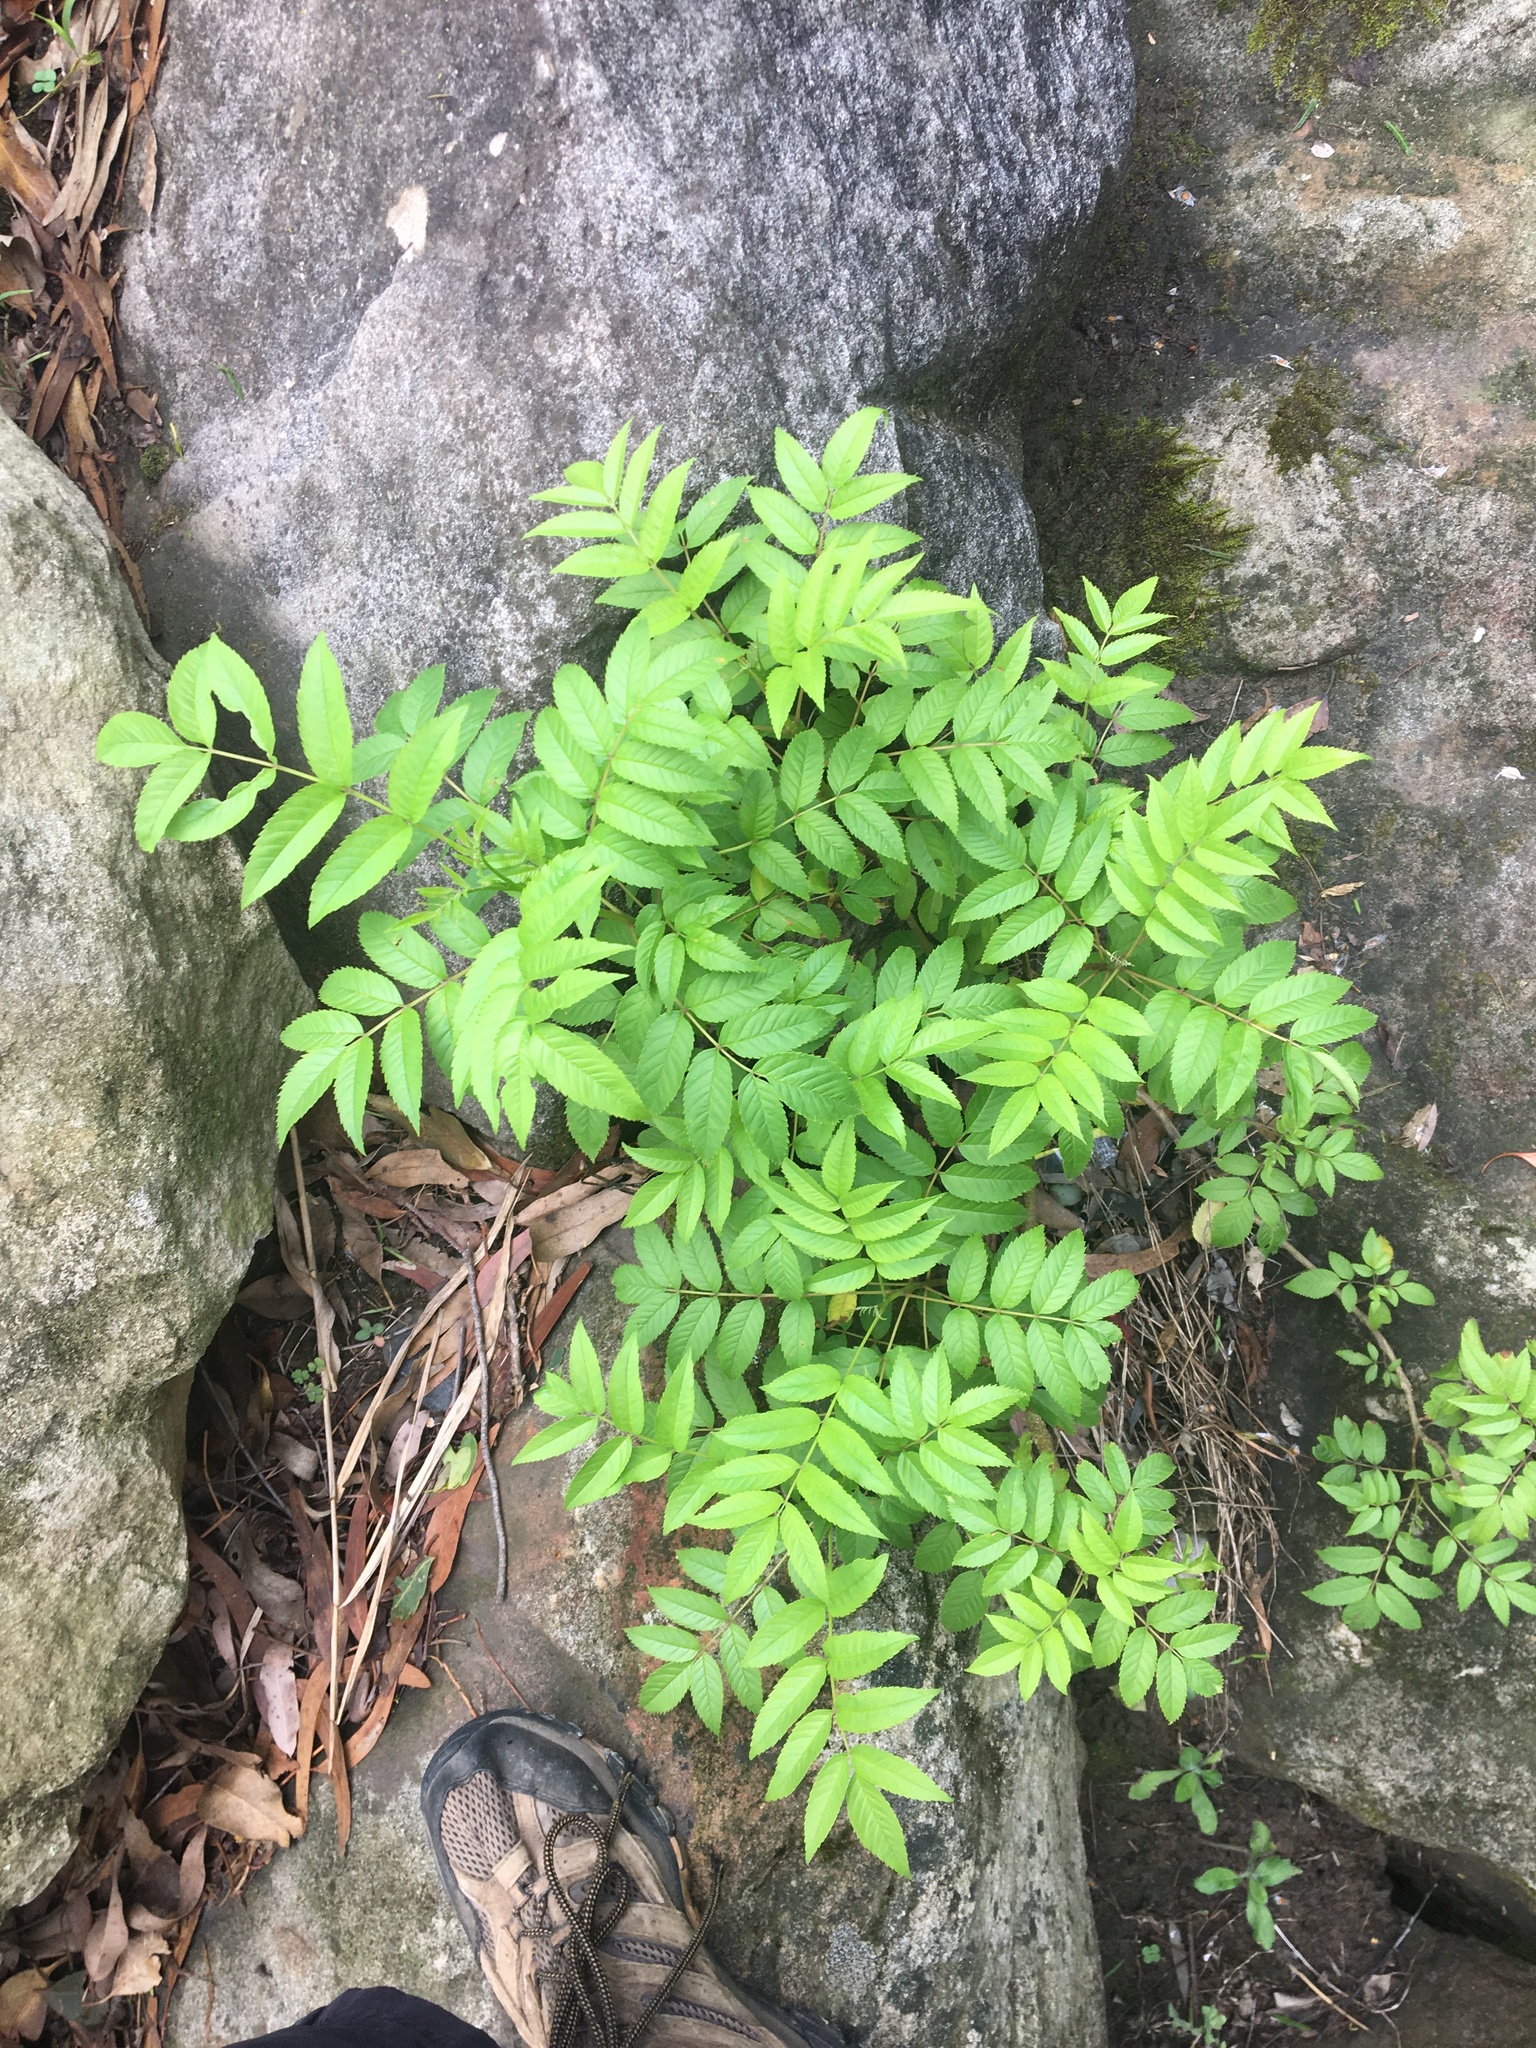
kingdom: Plantae
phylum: Tracheophyta
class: Magnoliopsida
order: Lamiales
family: Bignoniaceae
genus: Tecoma
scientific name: Tecoma stans
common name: Yellow trumpetbush
